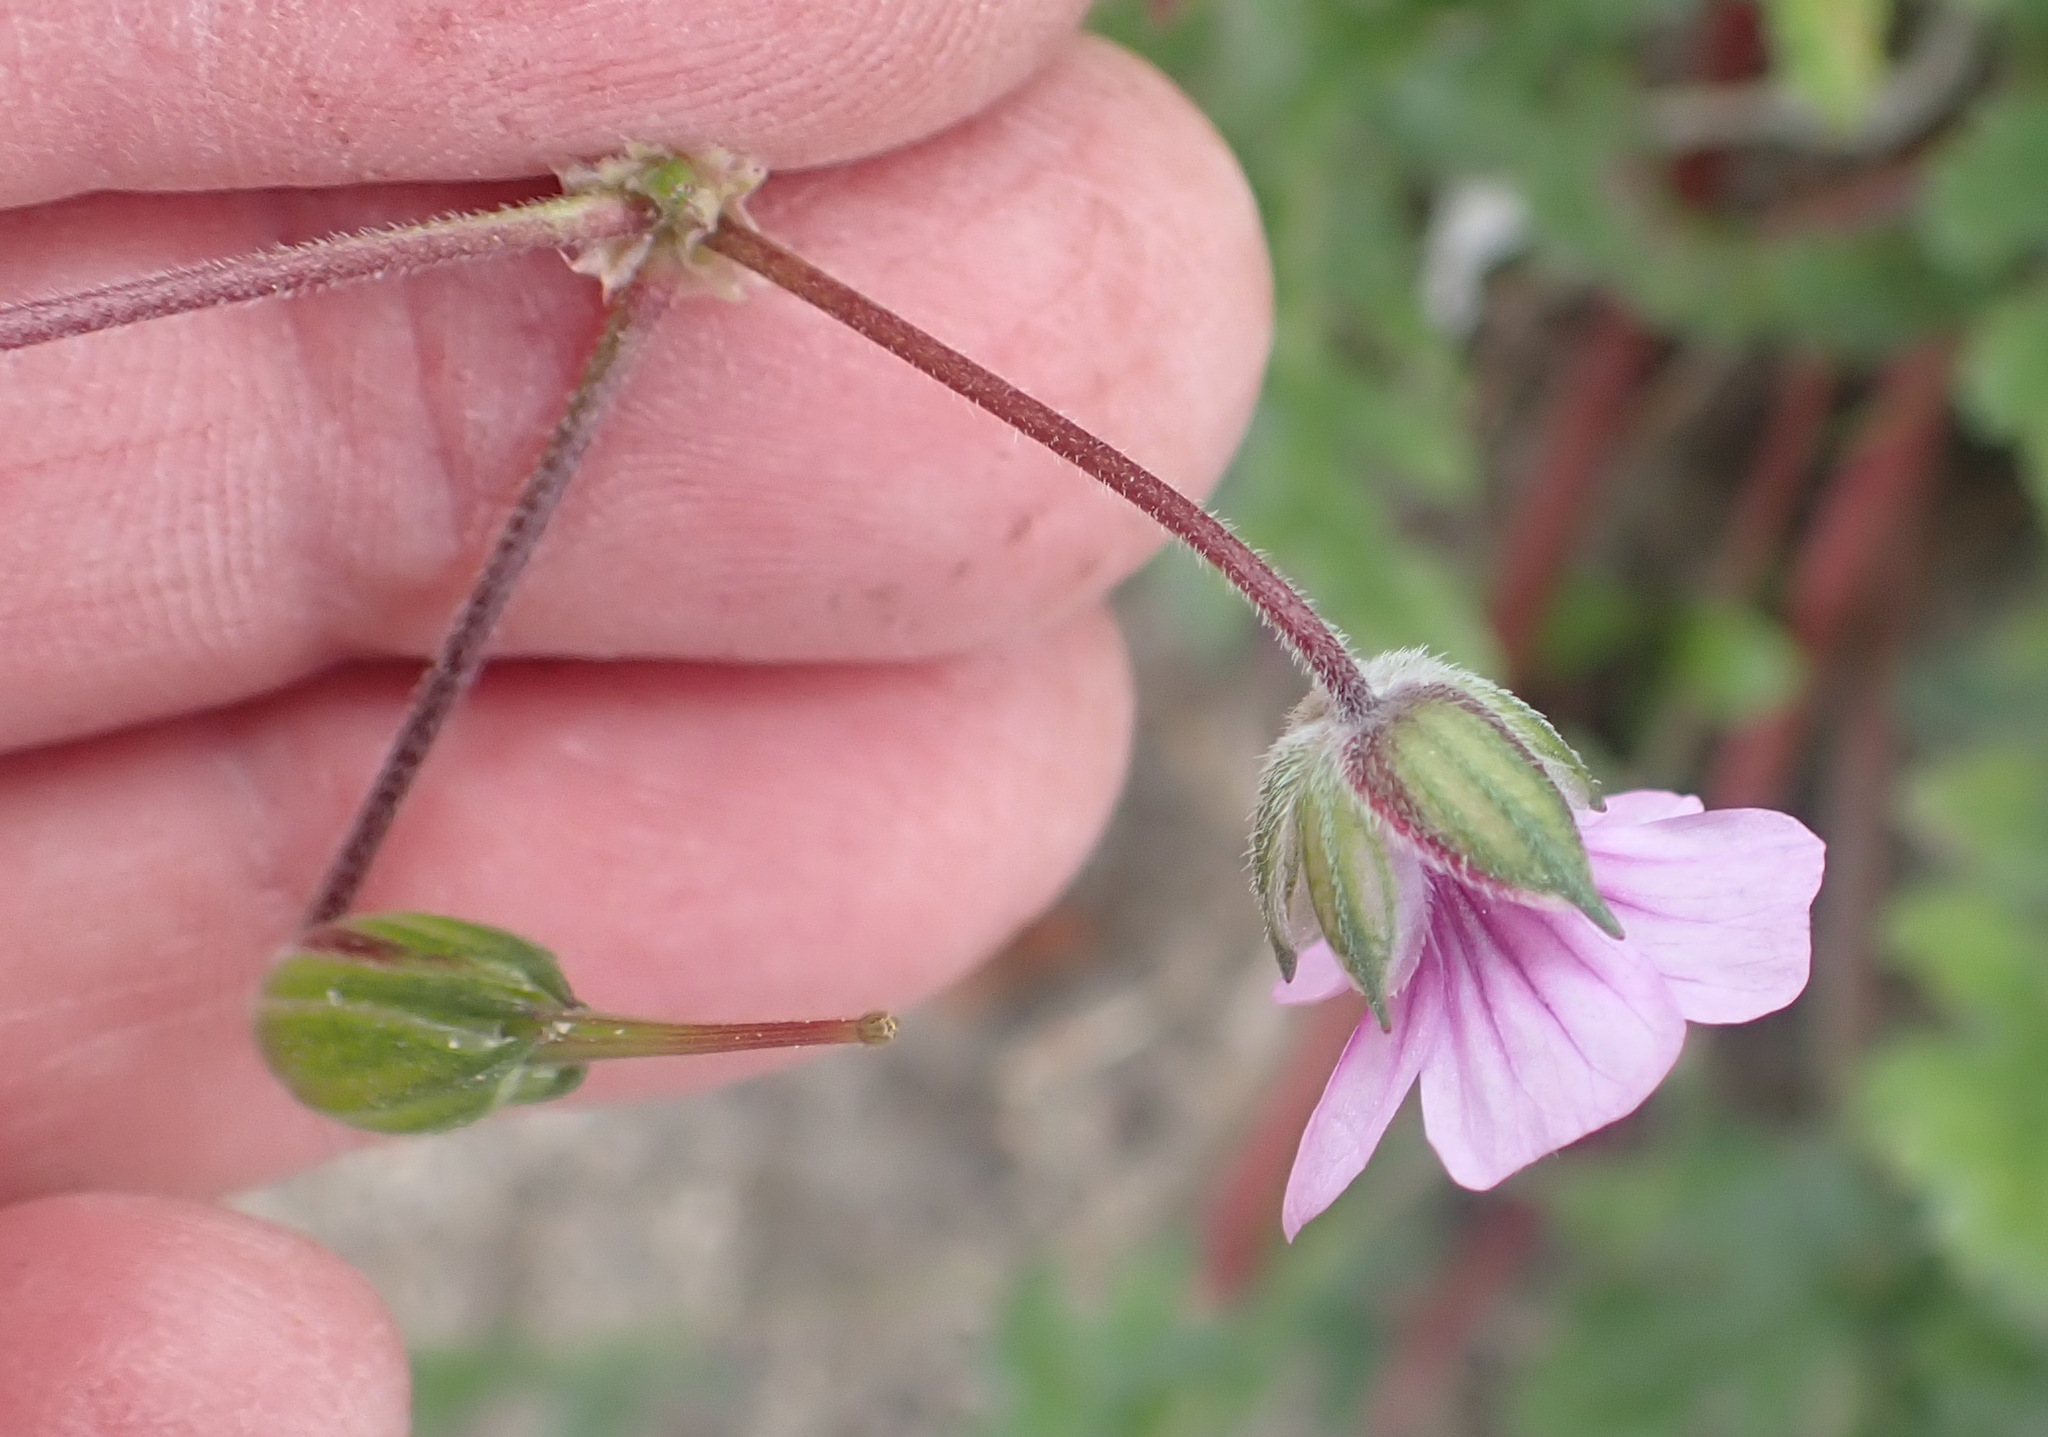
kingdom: Plantae
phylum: Tracheophyta
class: Magnoliopsida
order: Geraniales
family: Geraniaceae
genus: Erodium
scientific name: Erodium botrys
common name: Mediterranean stork's-bill
